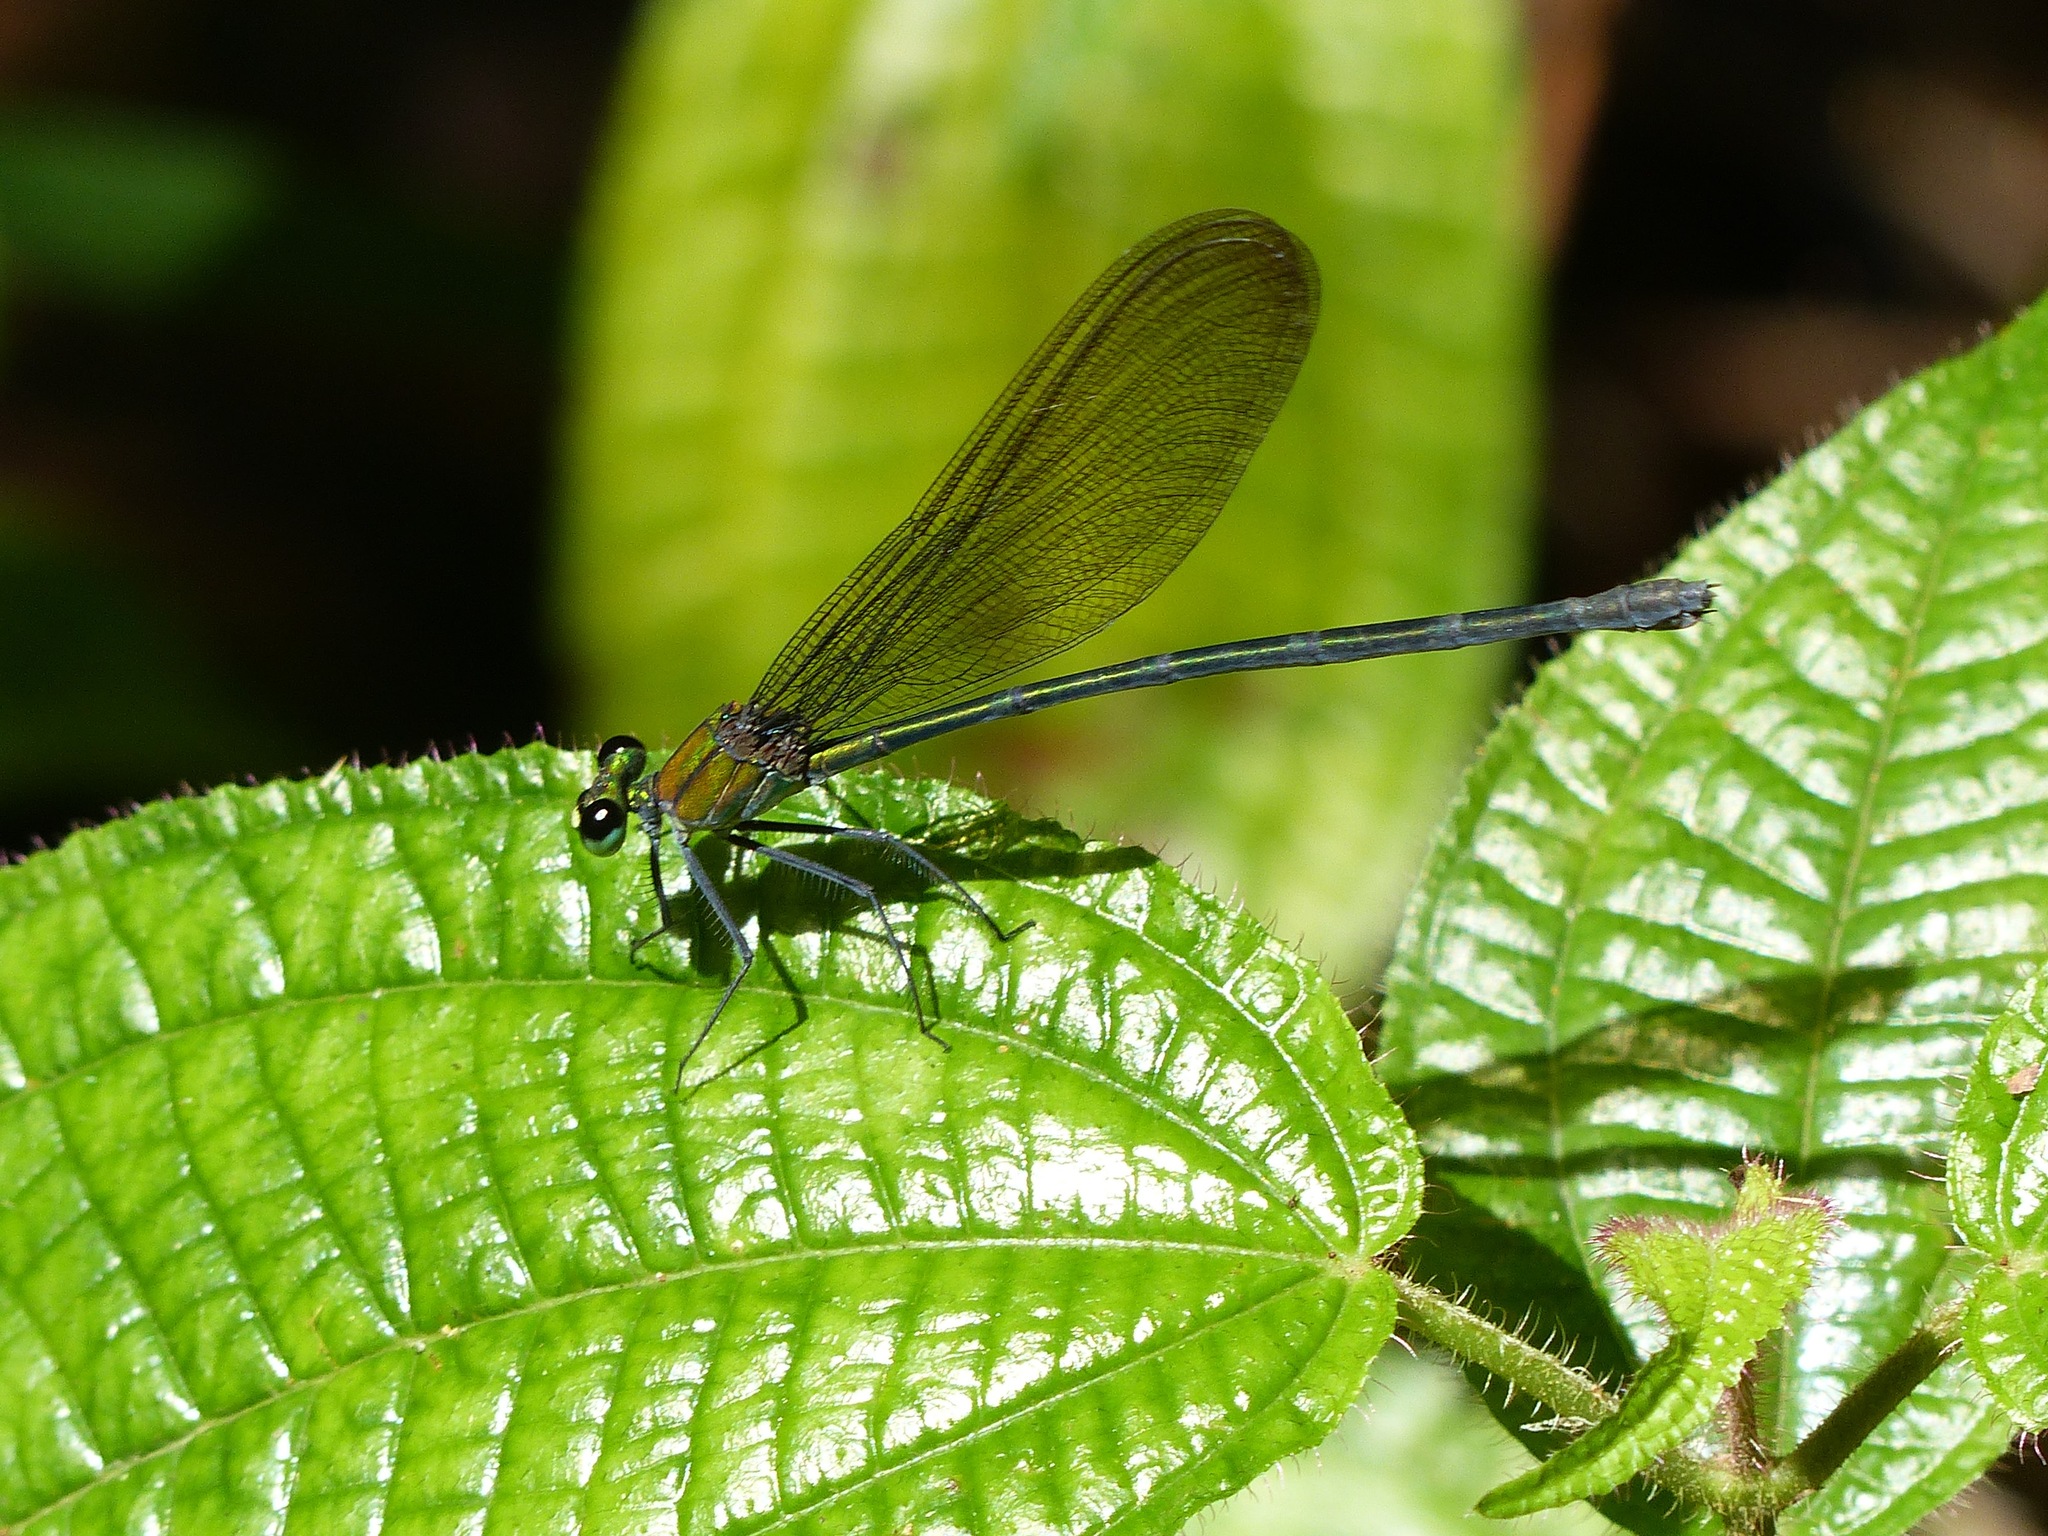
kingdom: Plantae
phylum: Tracheophyta
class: Magnoliopsida
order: Myrtales
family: Melastomataceae
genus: Miconia
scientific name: Miconia crenata
